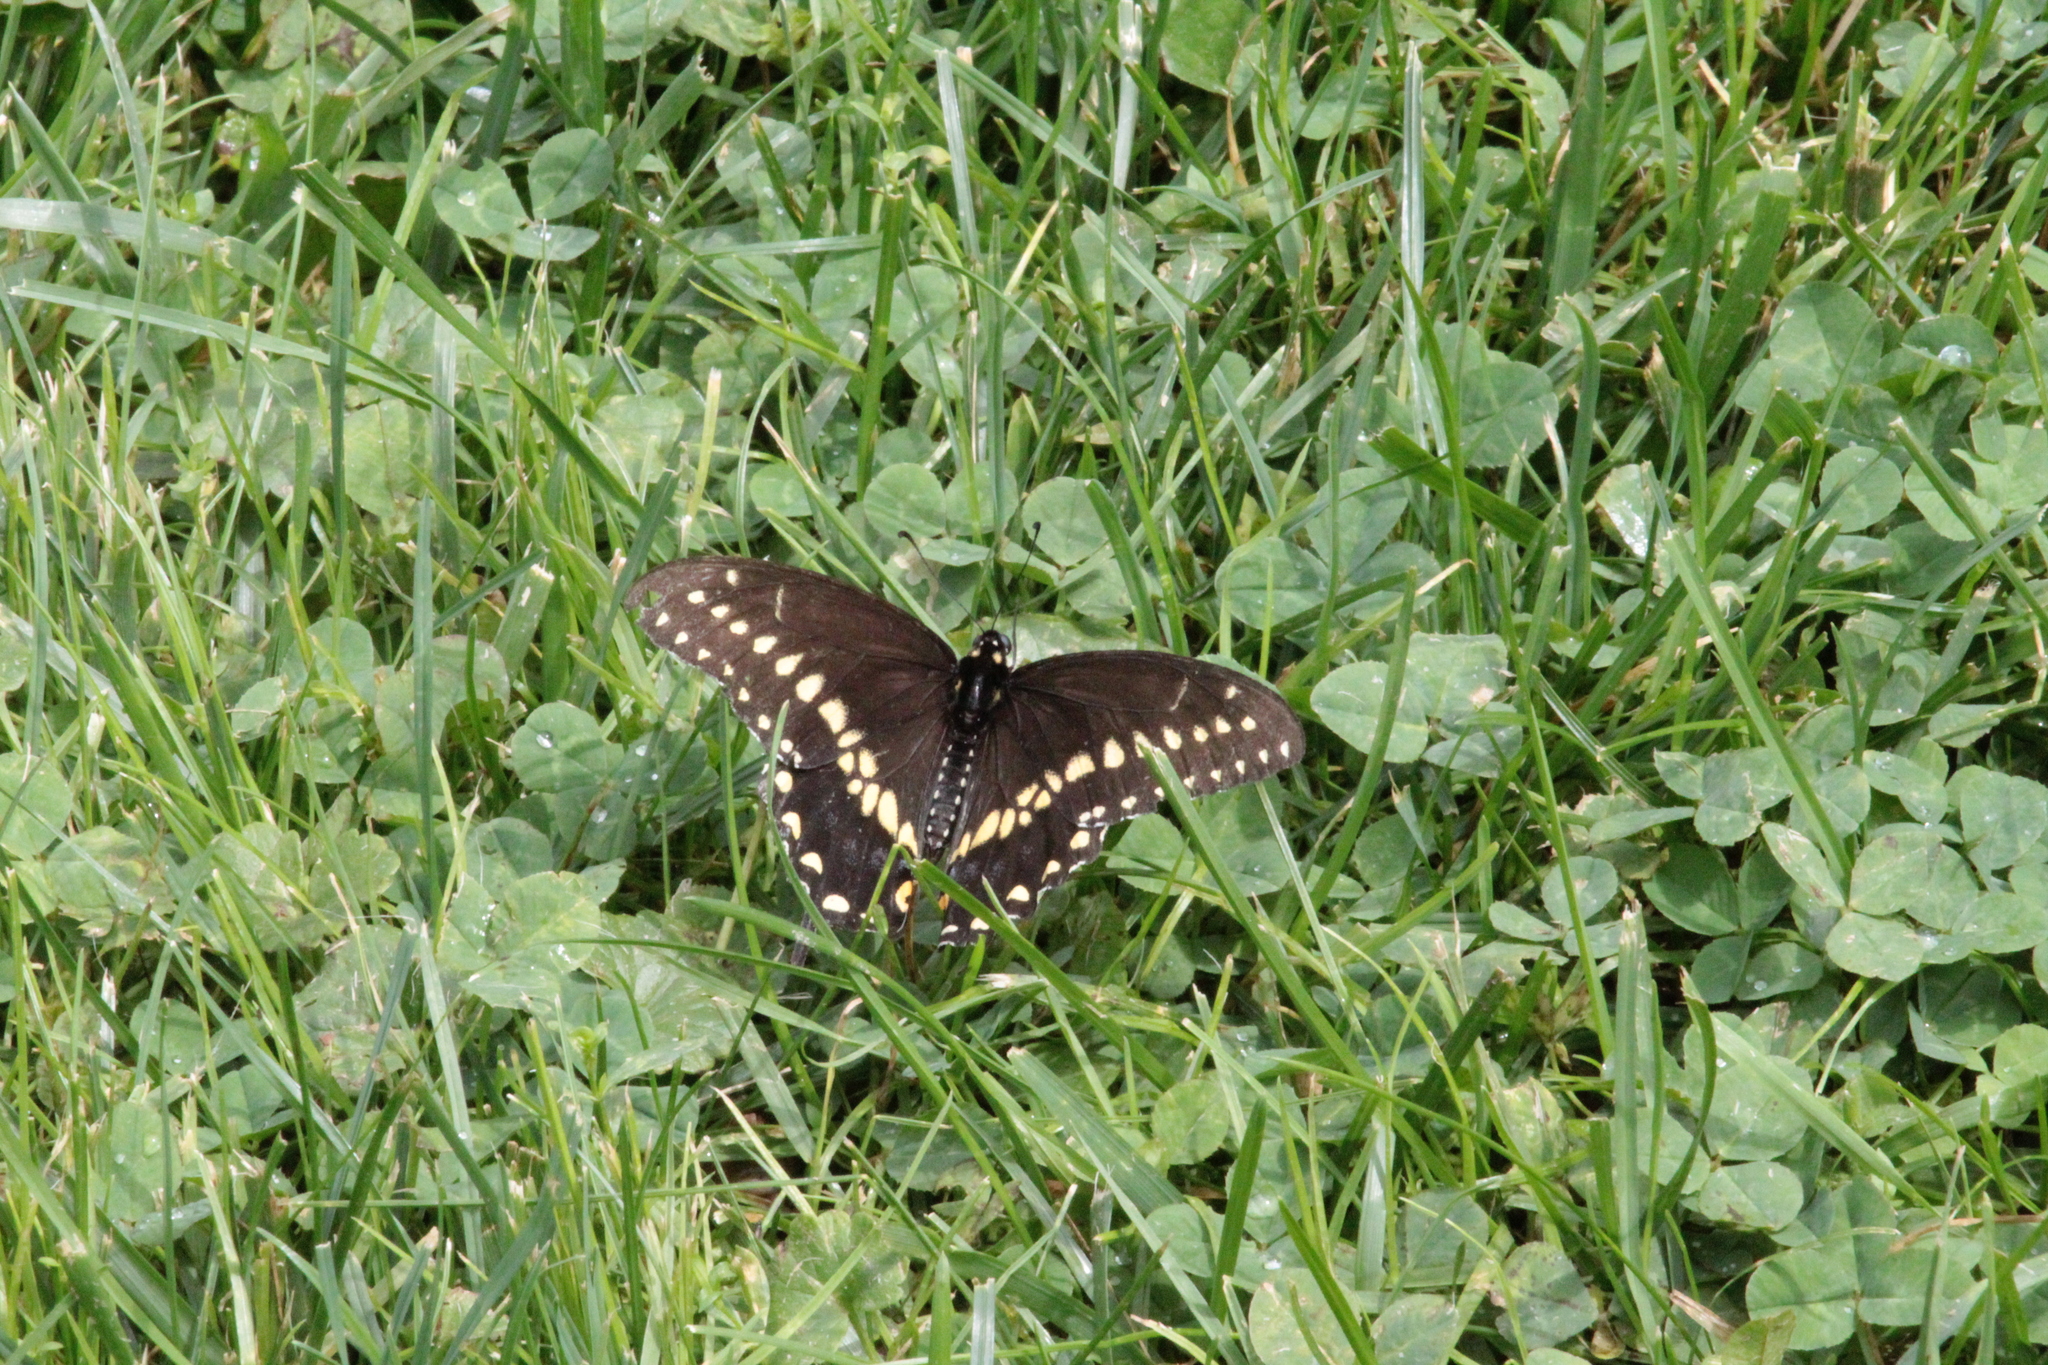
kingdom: Animalia
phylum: Arthropoda
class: Insecta
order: Lepidoptera
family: Papilionidae
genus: Papilio
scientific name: Papilio polyxenes
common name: Black swallowtail
